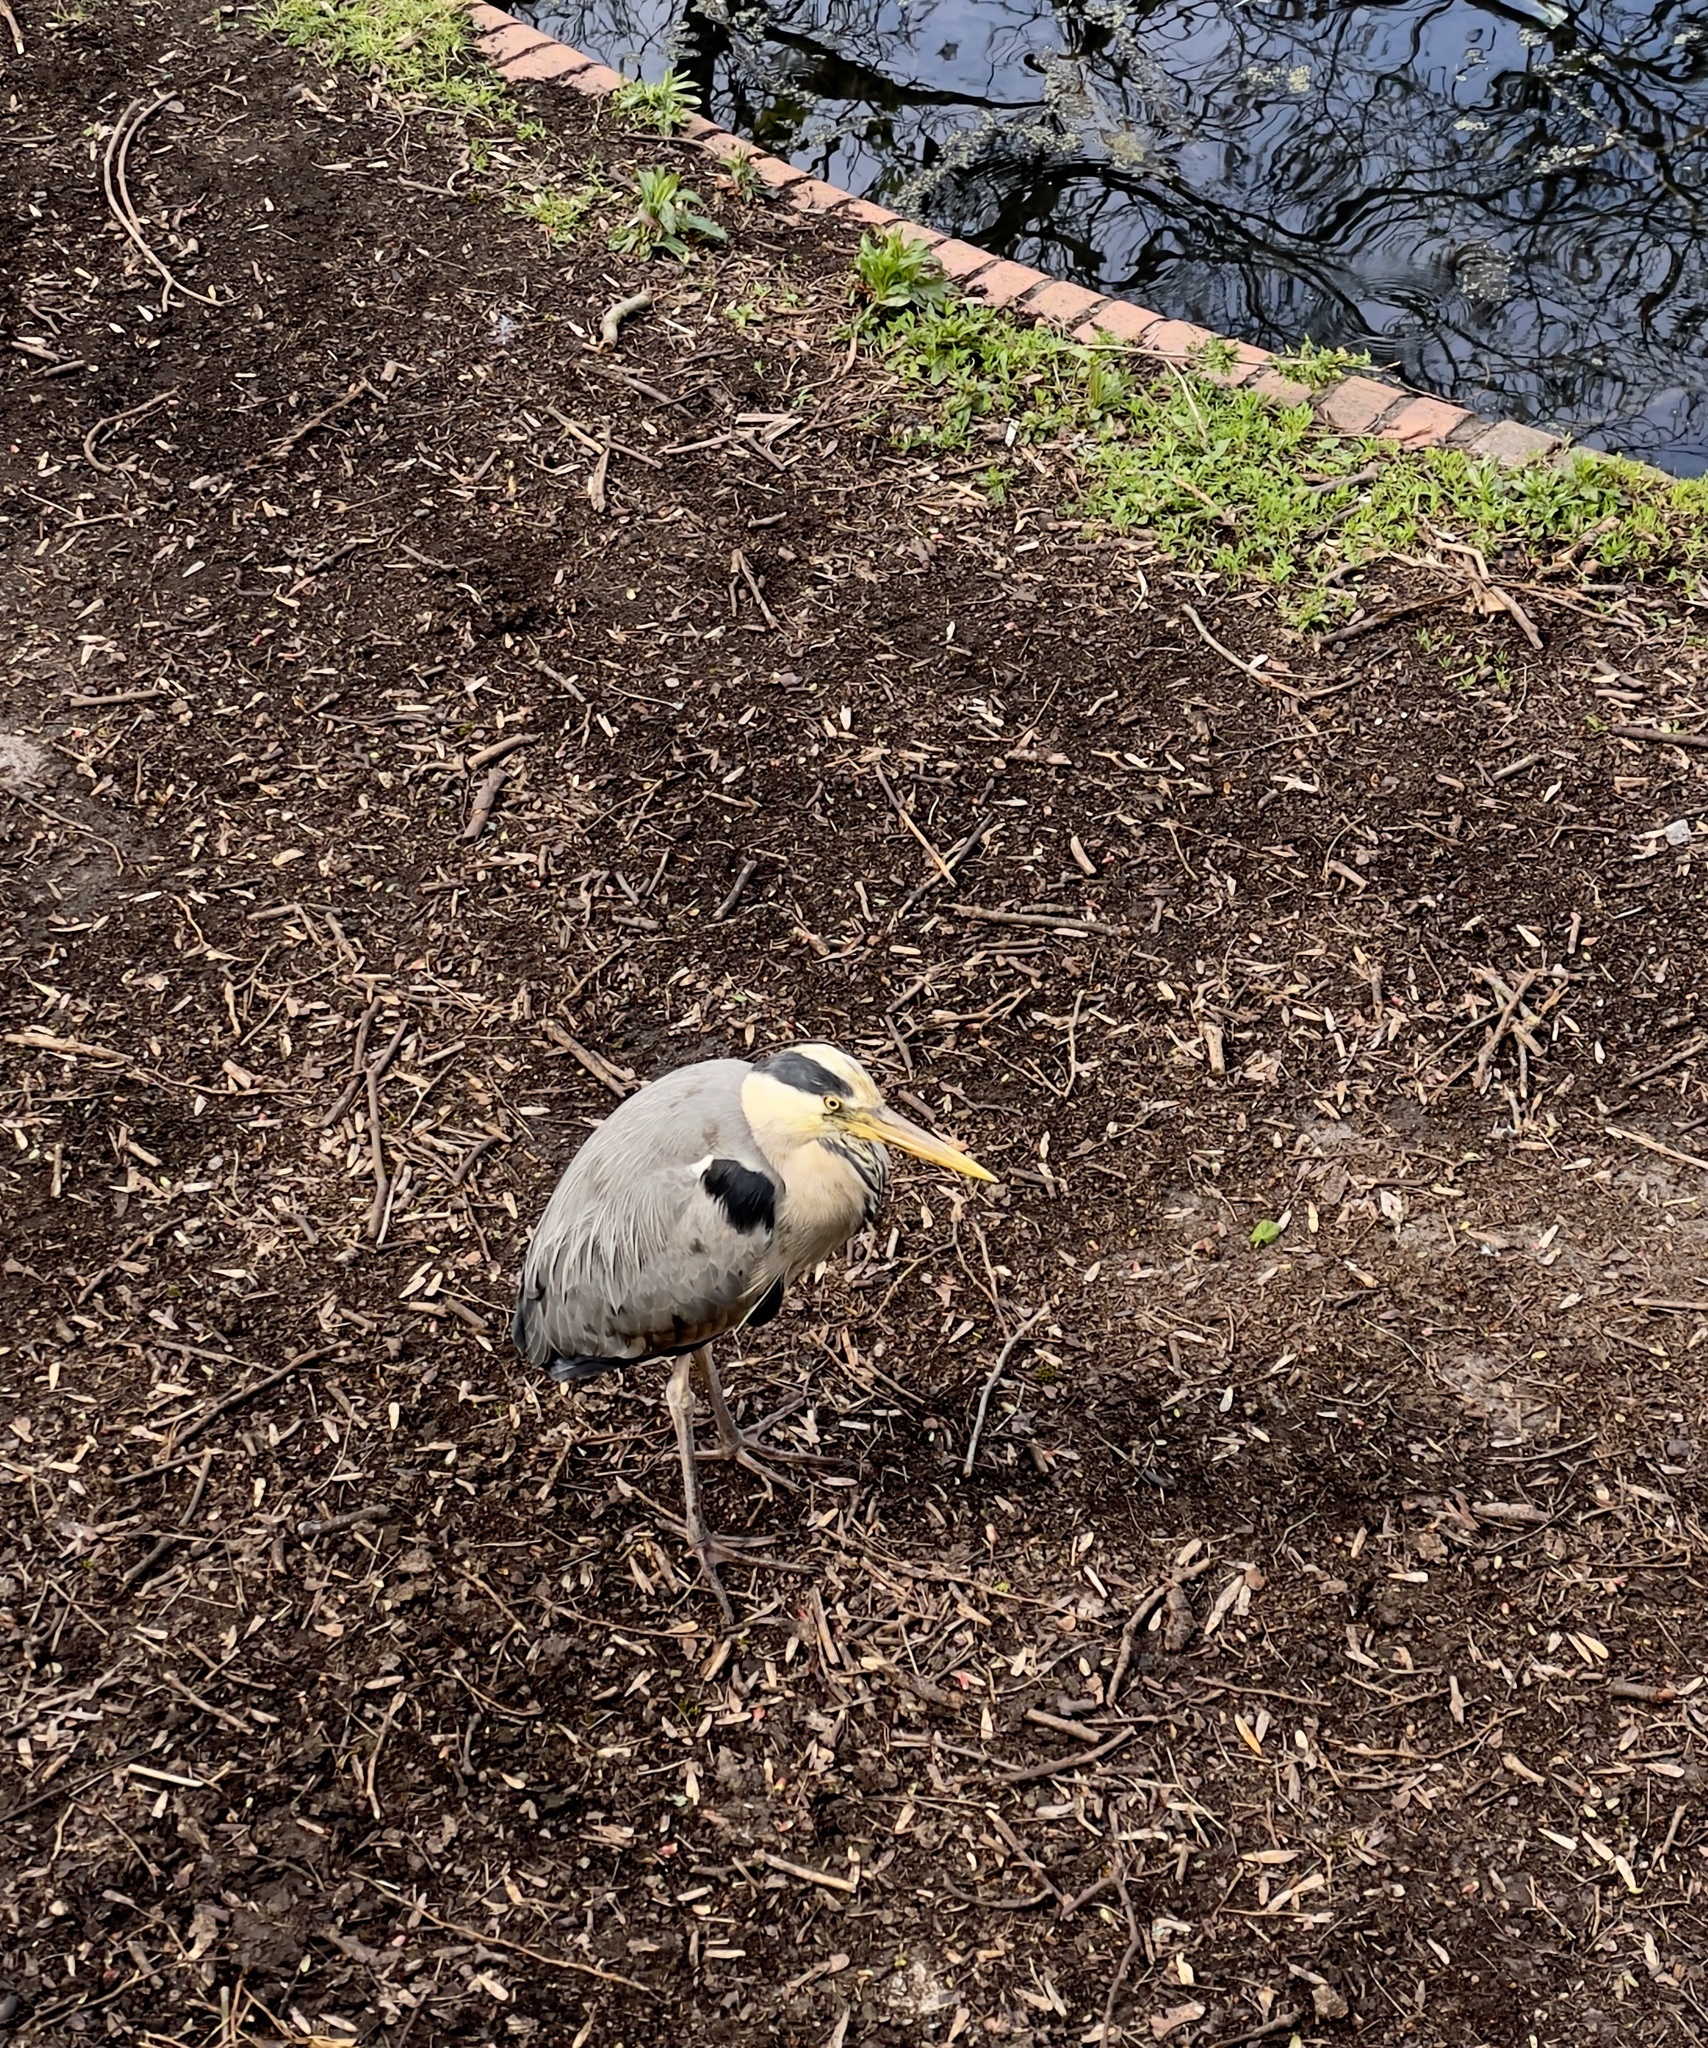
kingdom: Animalia
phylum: Chordata
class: Aves
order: Pelecaniformes
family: Ardeidae
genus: Ardea
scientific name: Ardea cinerea
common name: Grey heron
